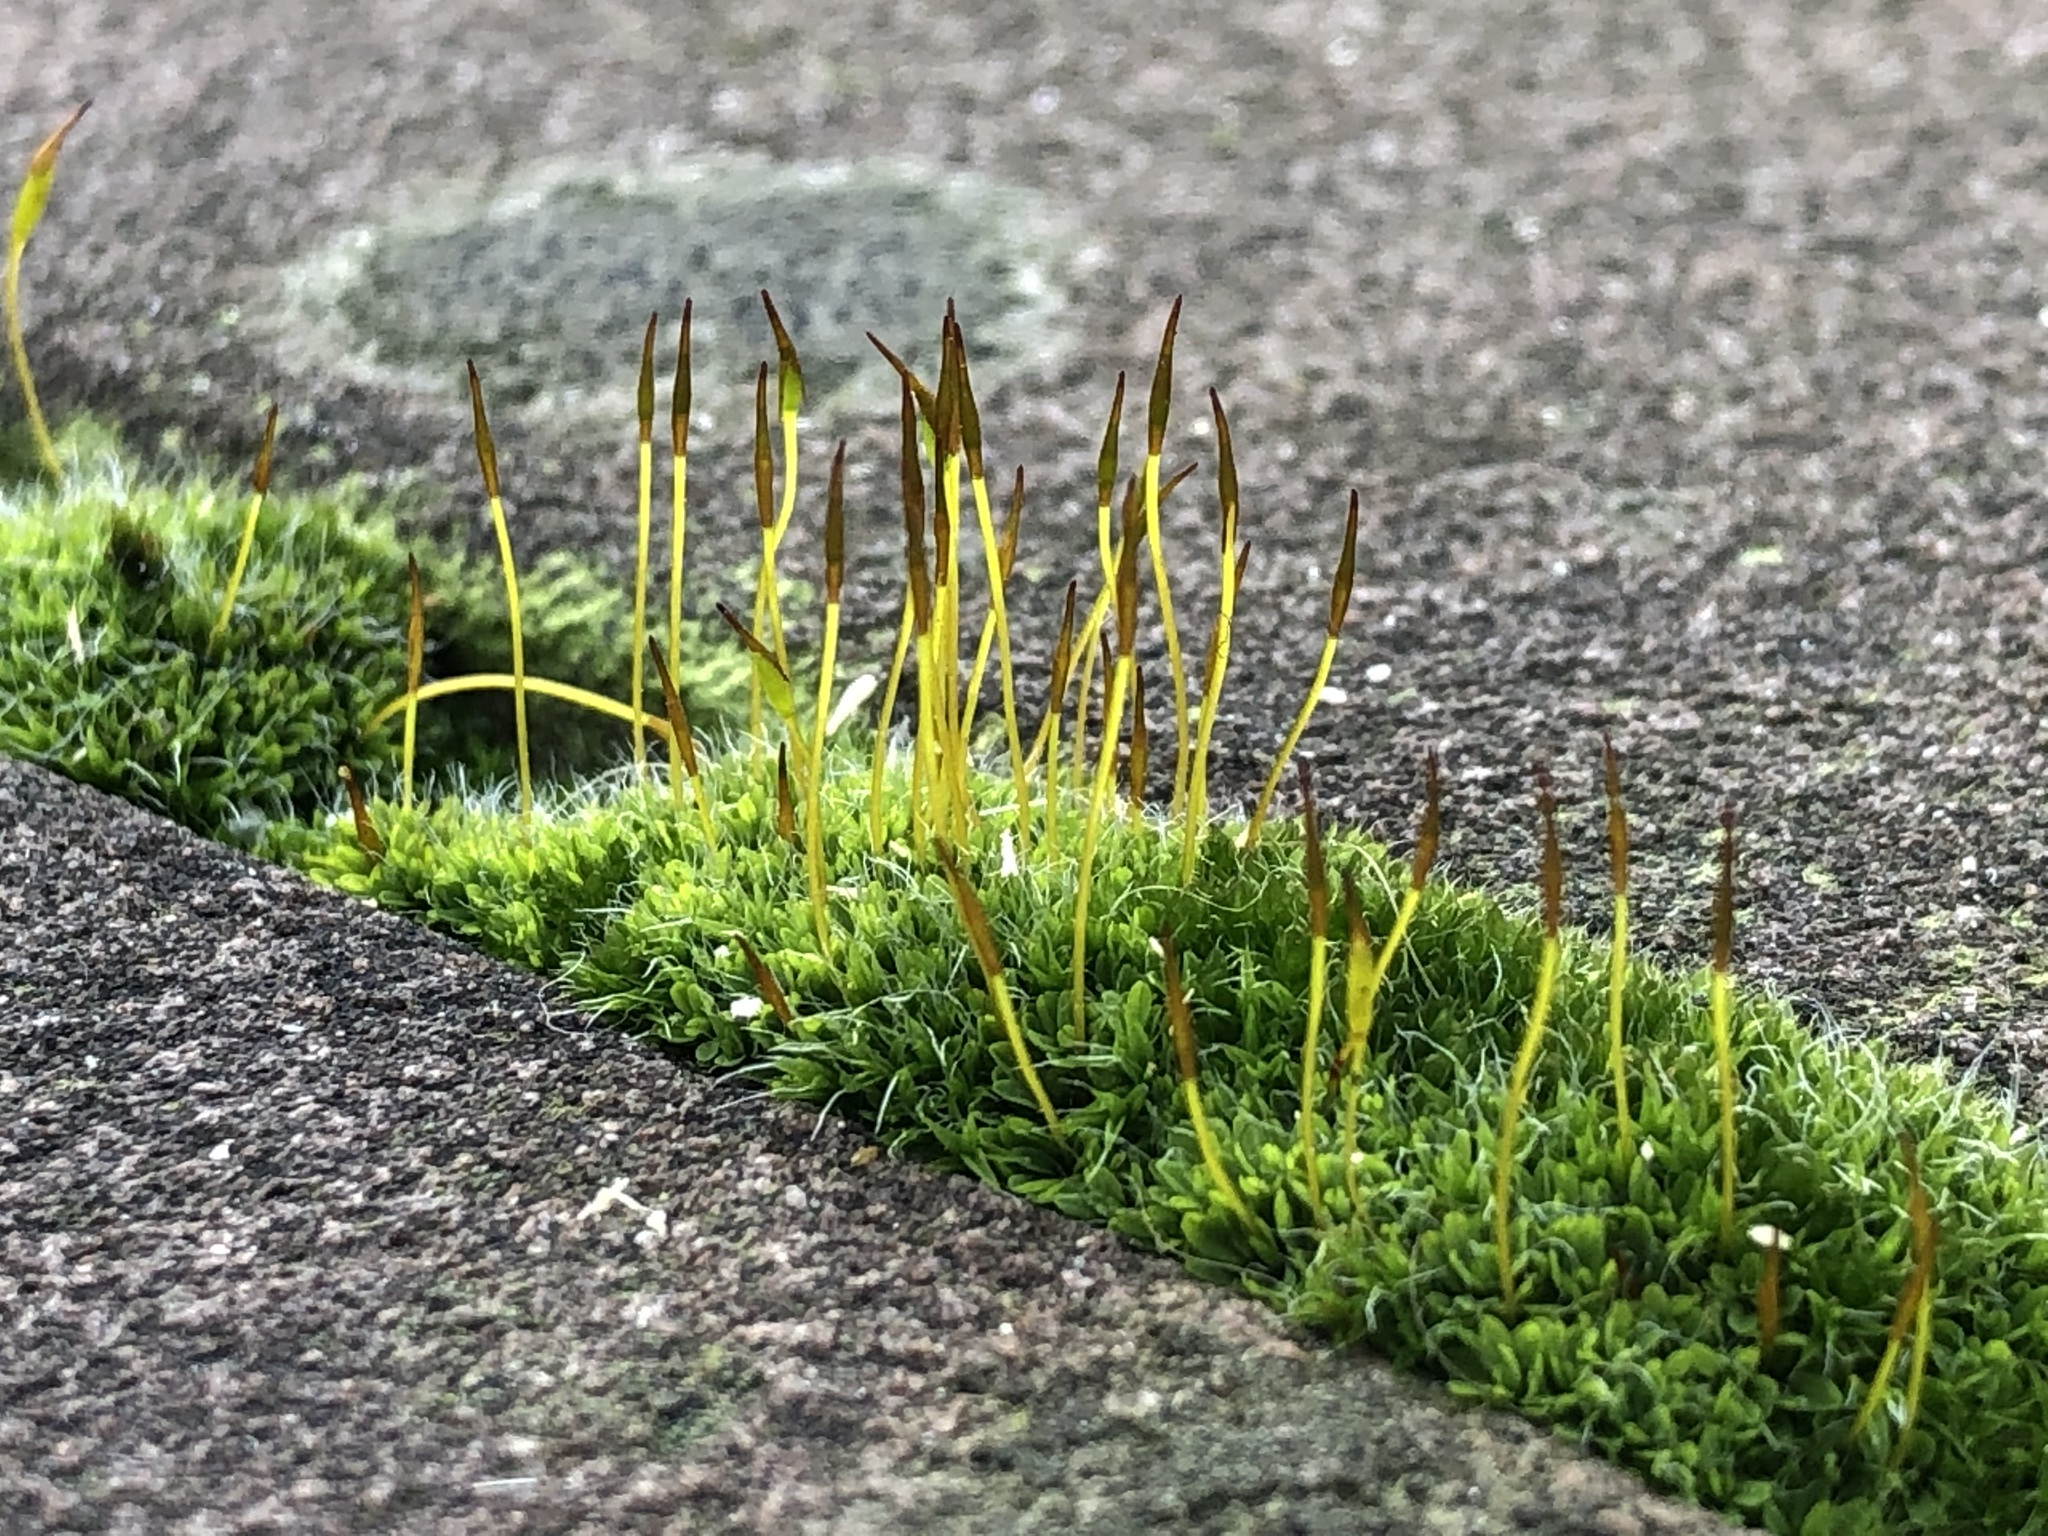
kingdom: Plantae
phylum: Bryophyta
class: Bryopsida
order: Pottiales
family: Pottiaceae
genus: Tortula
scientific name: Tortula muralis
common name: Wall screw-moss
